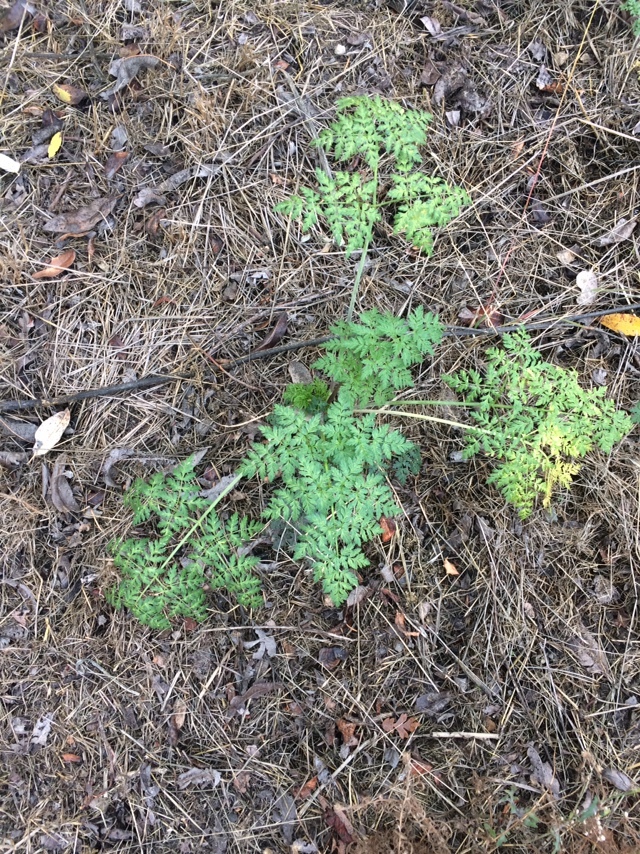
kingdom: Plantae
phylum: Tracheophyta
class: Magnoliopsida
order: Apiales
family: Apiaceae
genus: Conium
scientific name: Conium maculatum
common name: Hemlock
